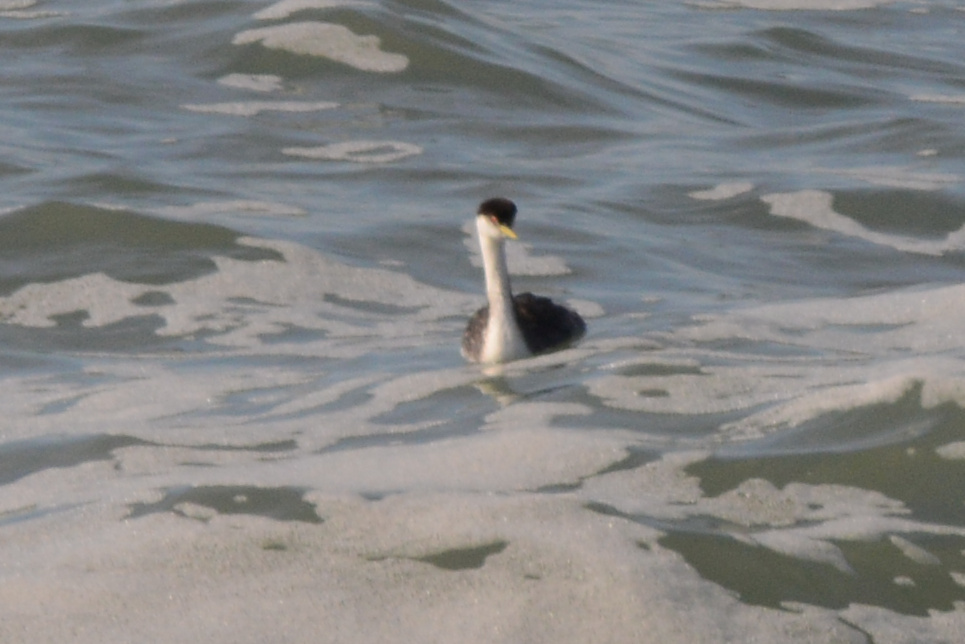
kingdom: Animalia
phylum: Chordata
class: Aves
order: Podicipediformes
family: Podicipedidae
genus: Aechmophorus
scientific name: Aechmophorus occidentalis
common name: Western grebe
